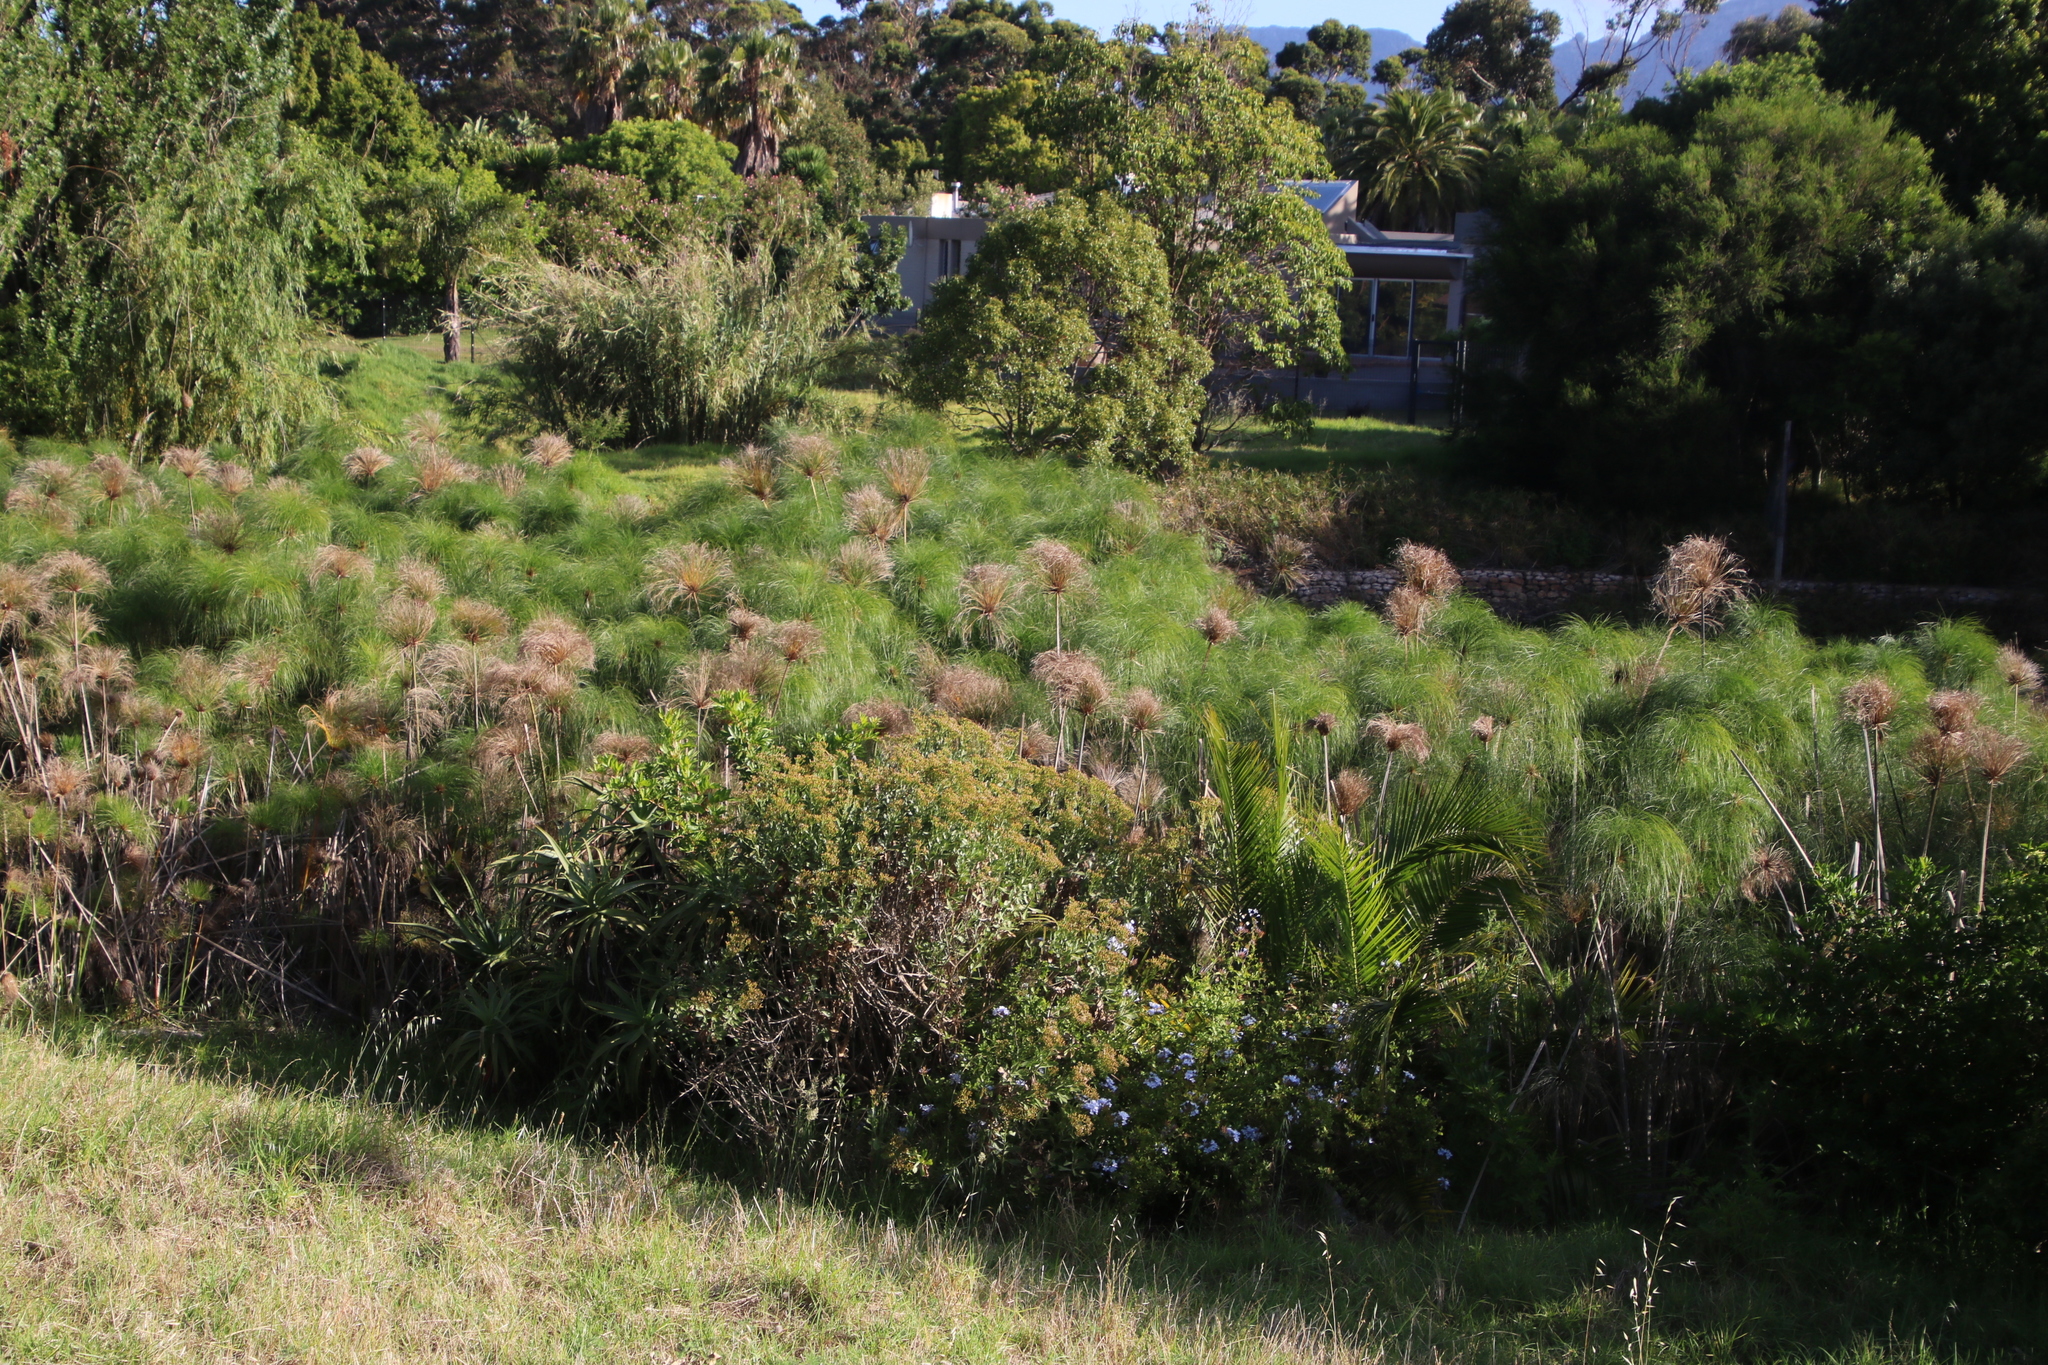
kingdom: Plantae
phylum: Tracheophyta
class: Liliopsida
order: Poales
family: Cyperaceae
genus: Cyperus
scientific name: Cyperus papyrus
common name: Papyrus
